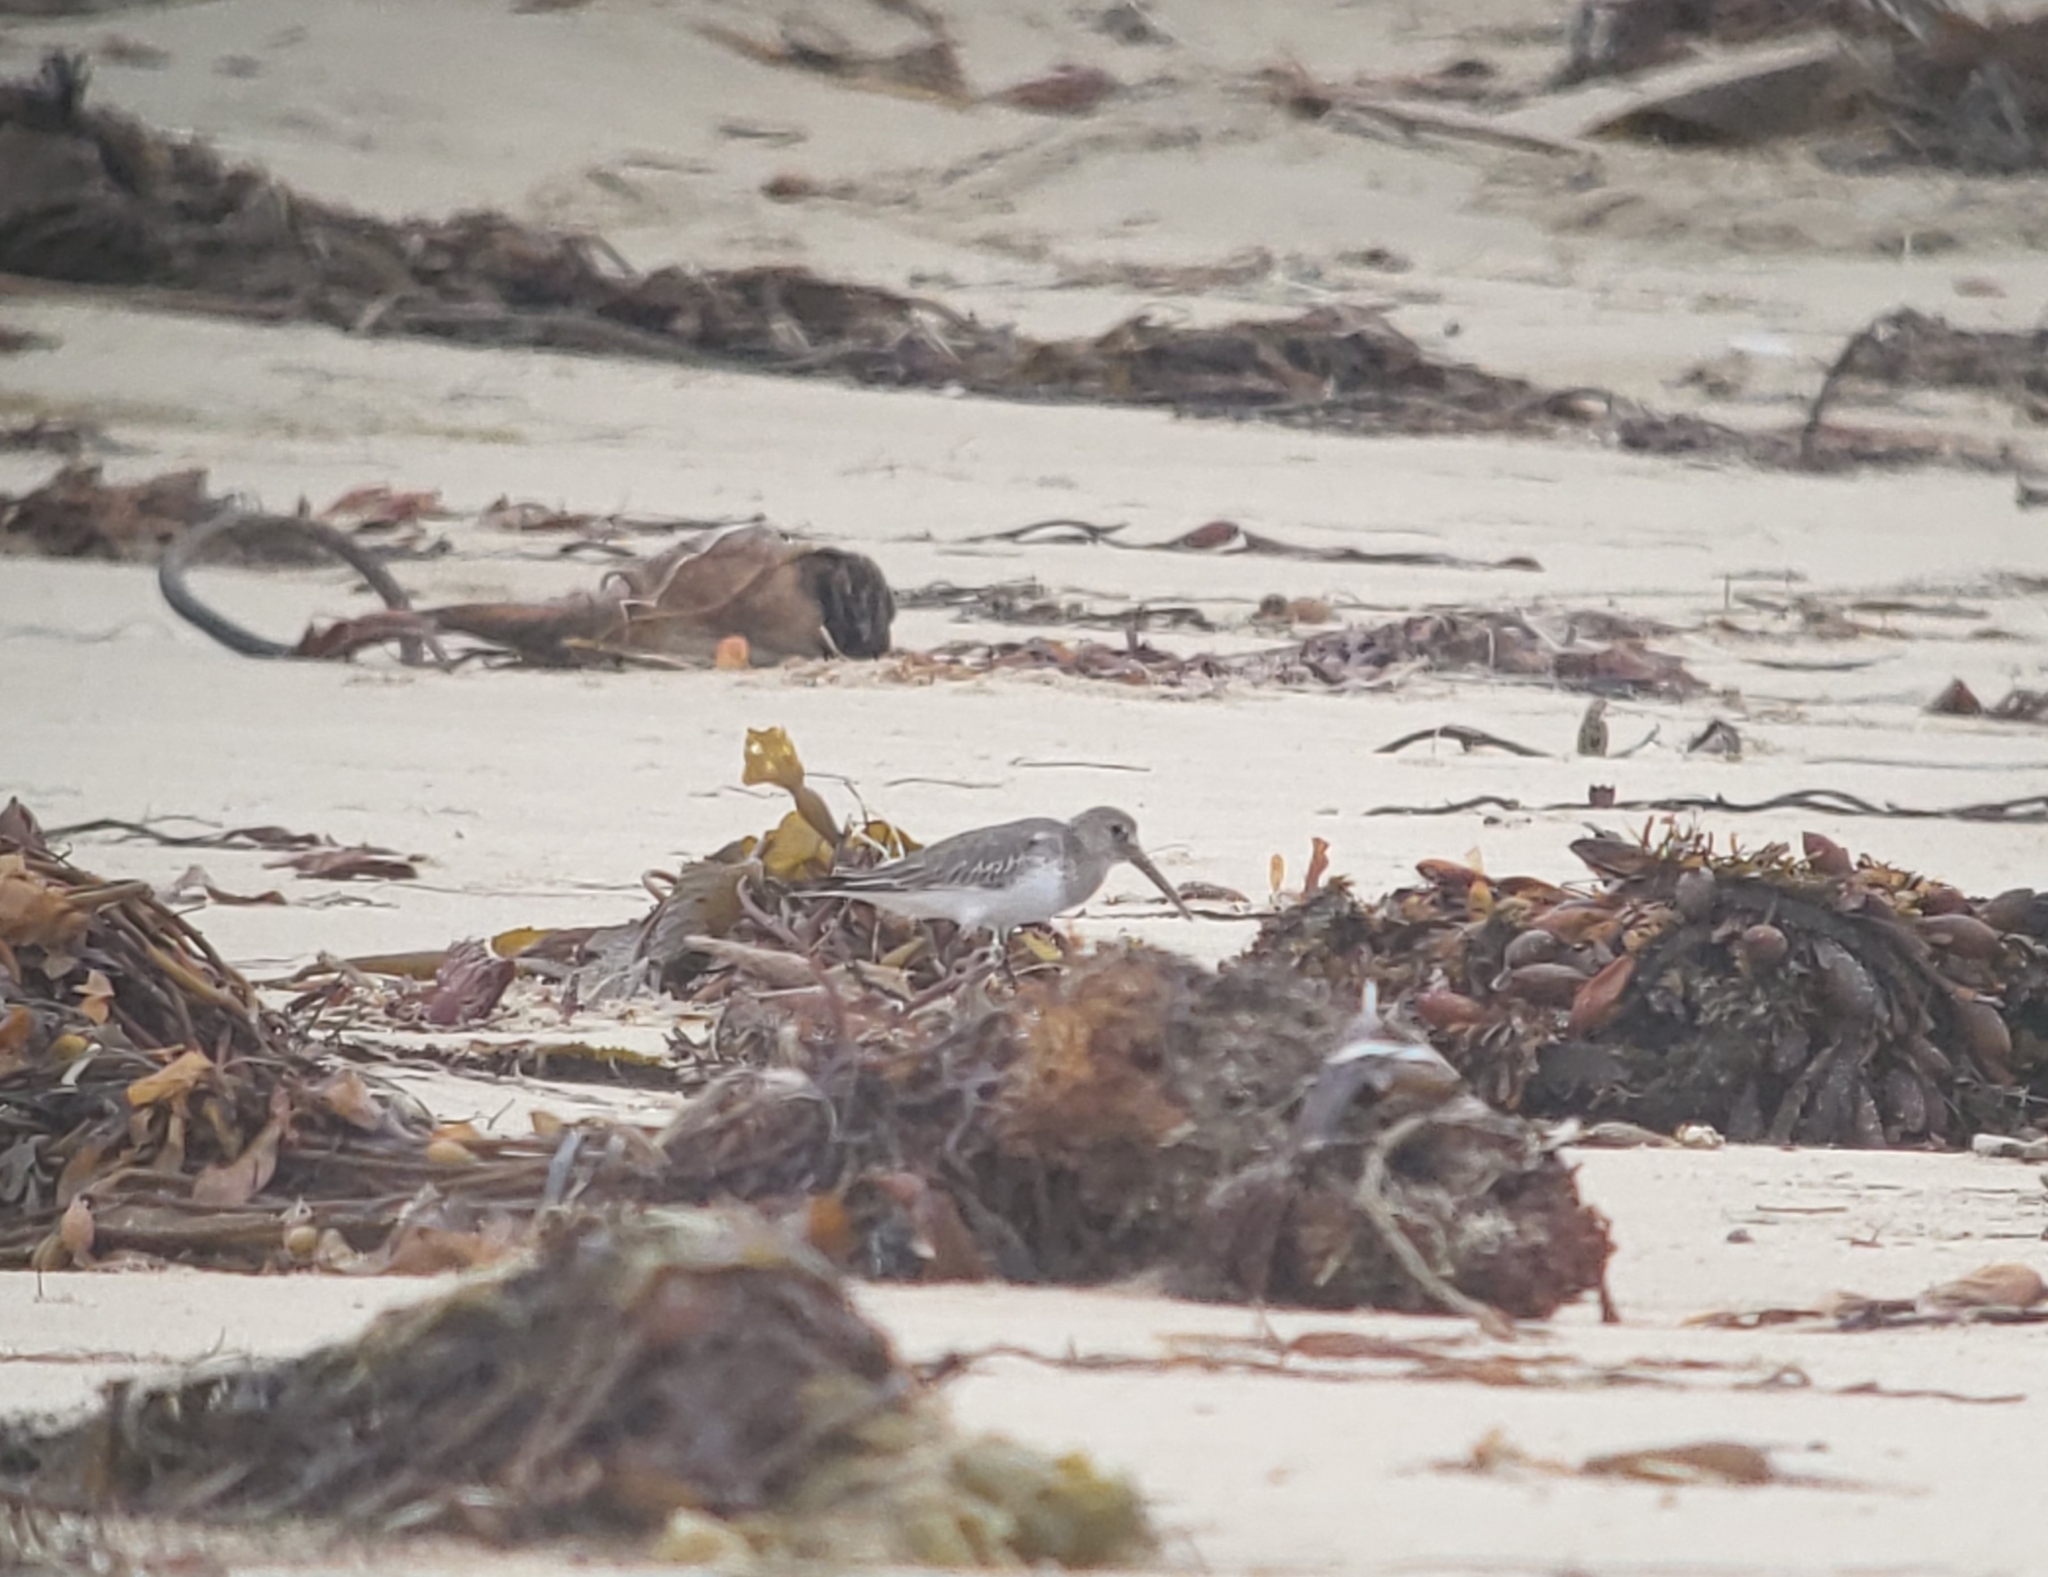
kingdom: Animalia
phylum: Chordata
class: Aves
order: Charadriiformes
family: Scolopacidae
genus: Calidris
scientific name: Calidris alpina
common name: Dunlin
